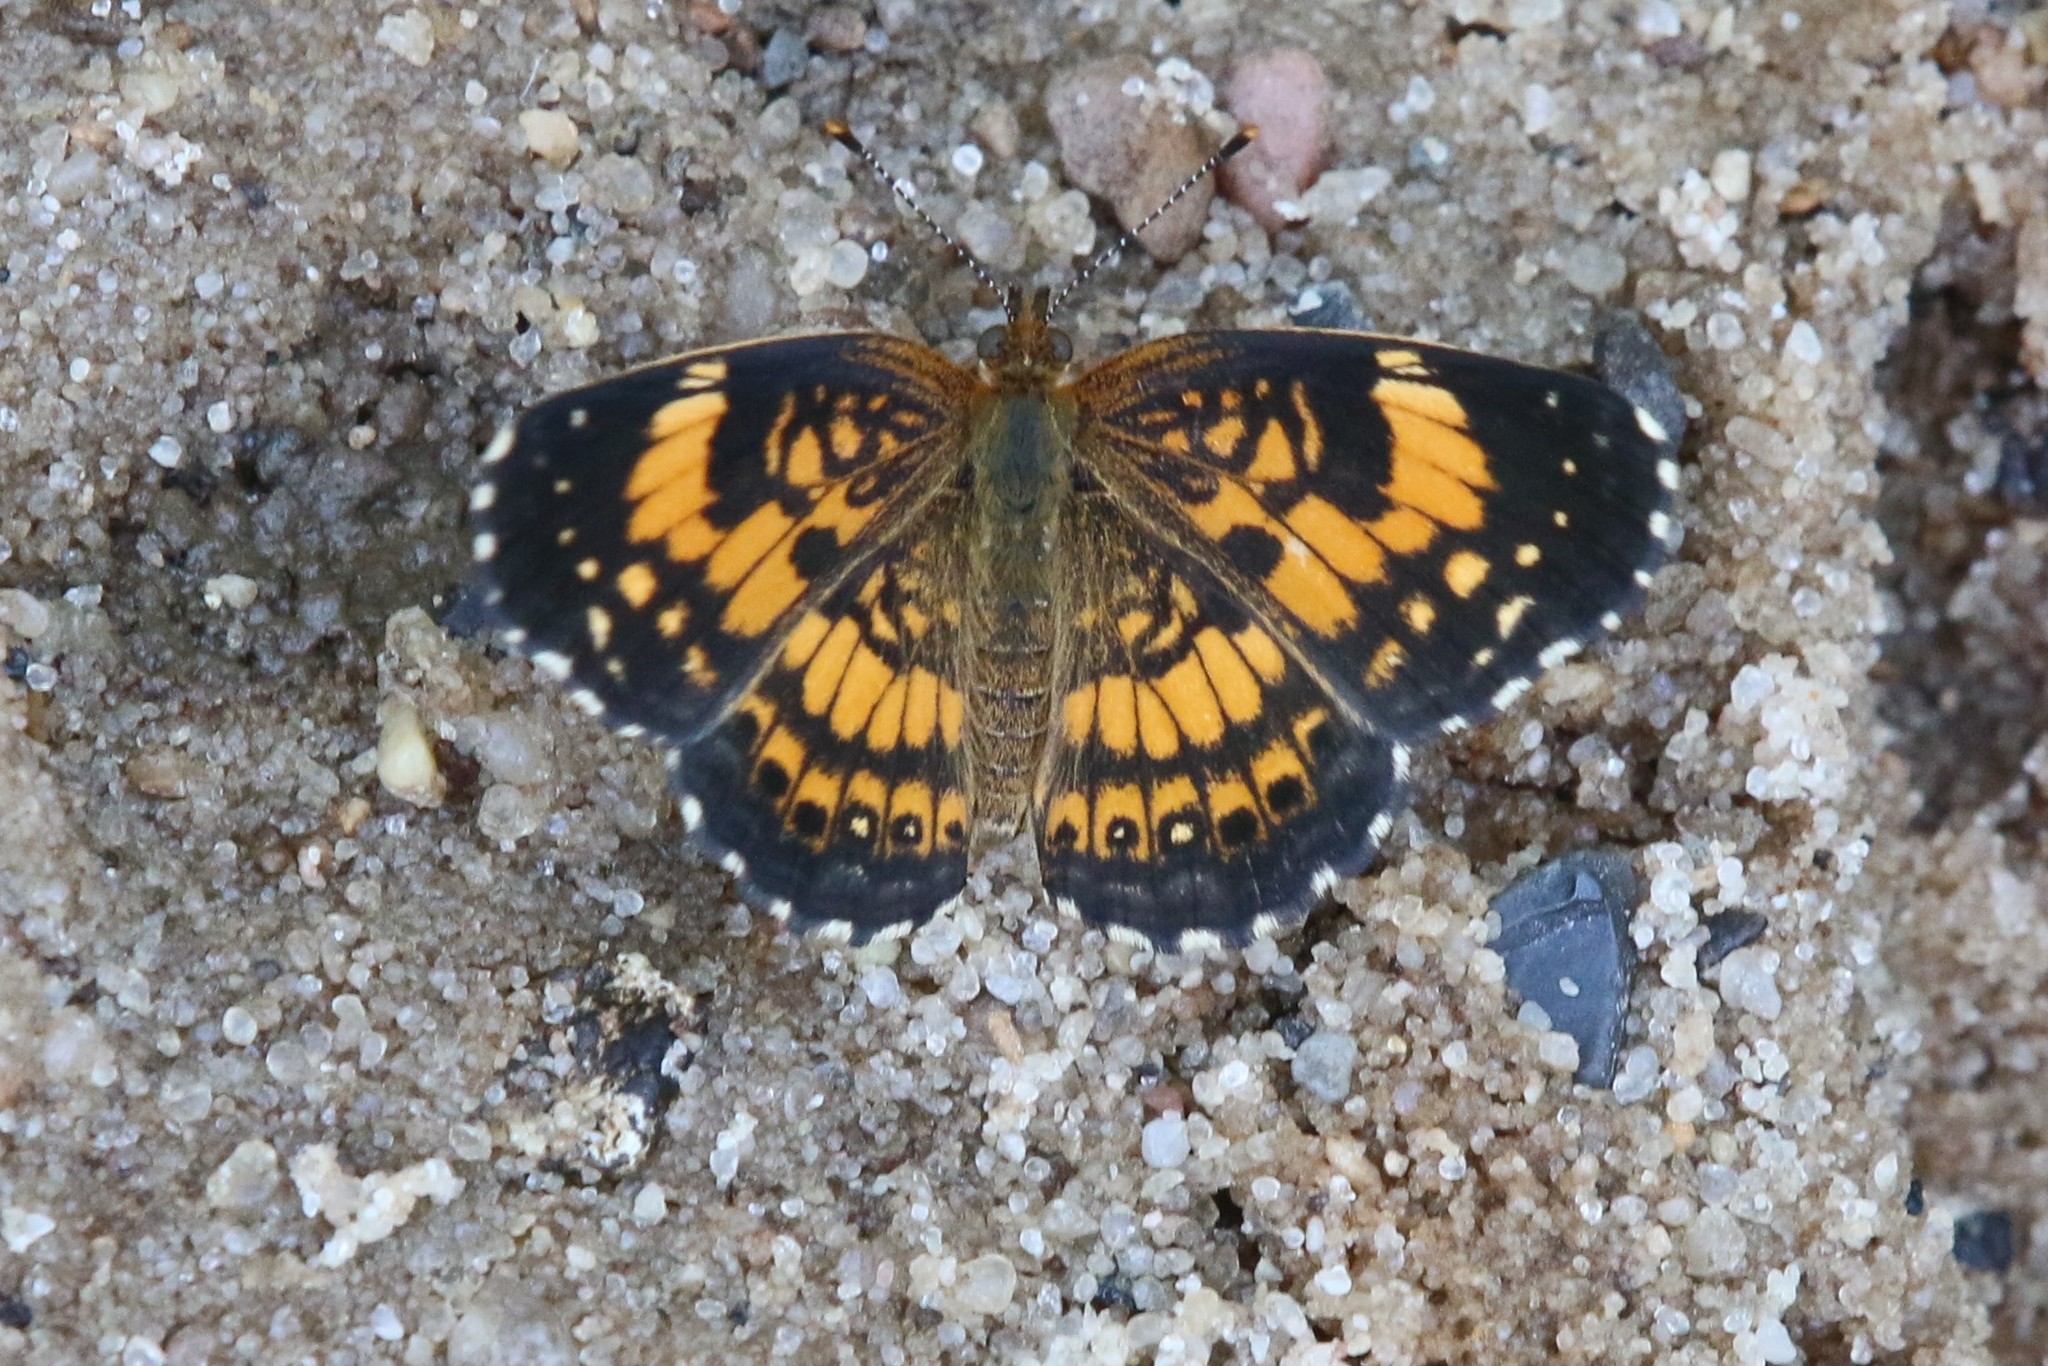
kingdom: Animalia
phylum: Arthropoda
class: Insecta
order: Lepidoptera
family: Nymphalidae
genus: Chlosyne
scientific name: Chlosyne nycteis
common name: Silvery checkerspot
